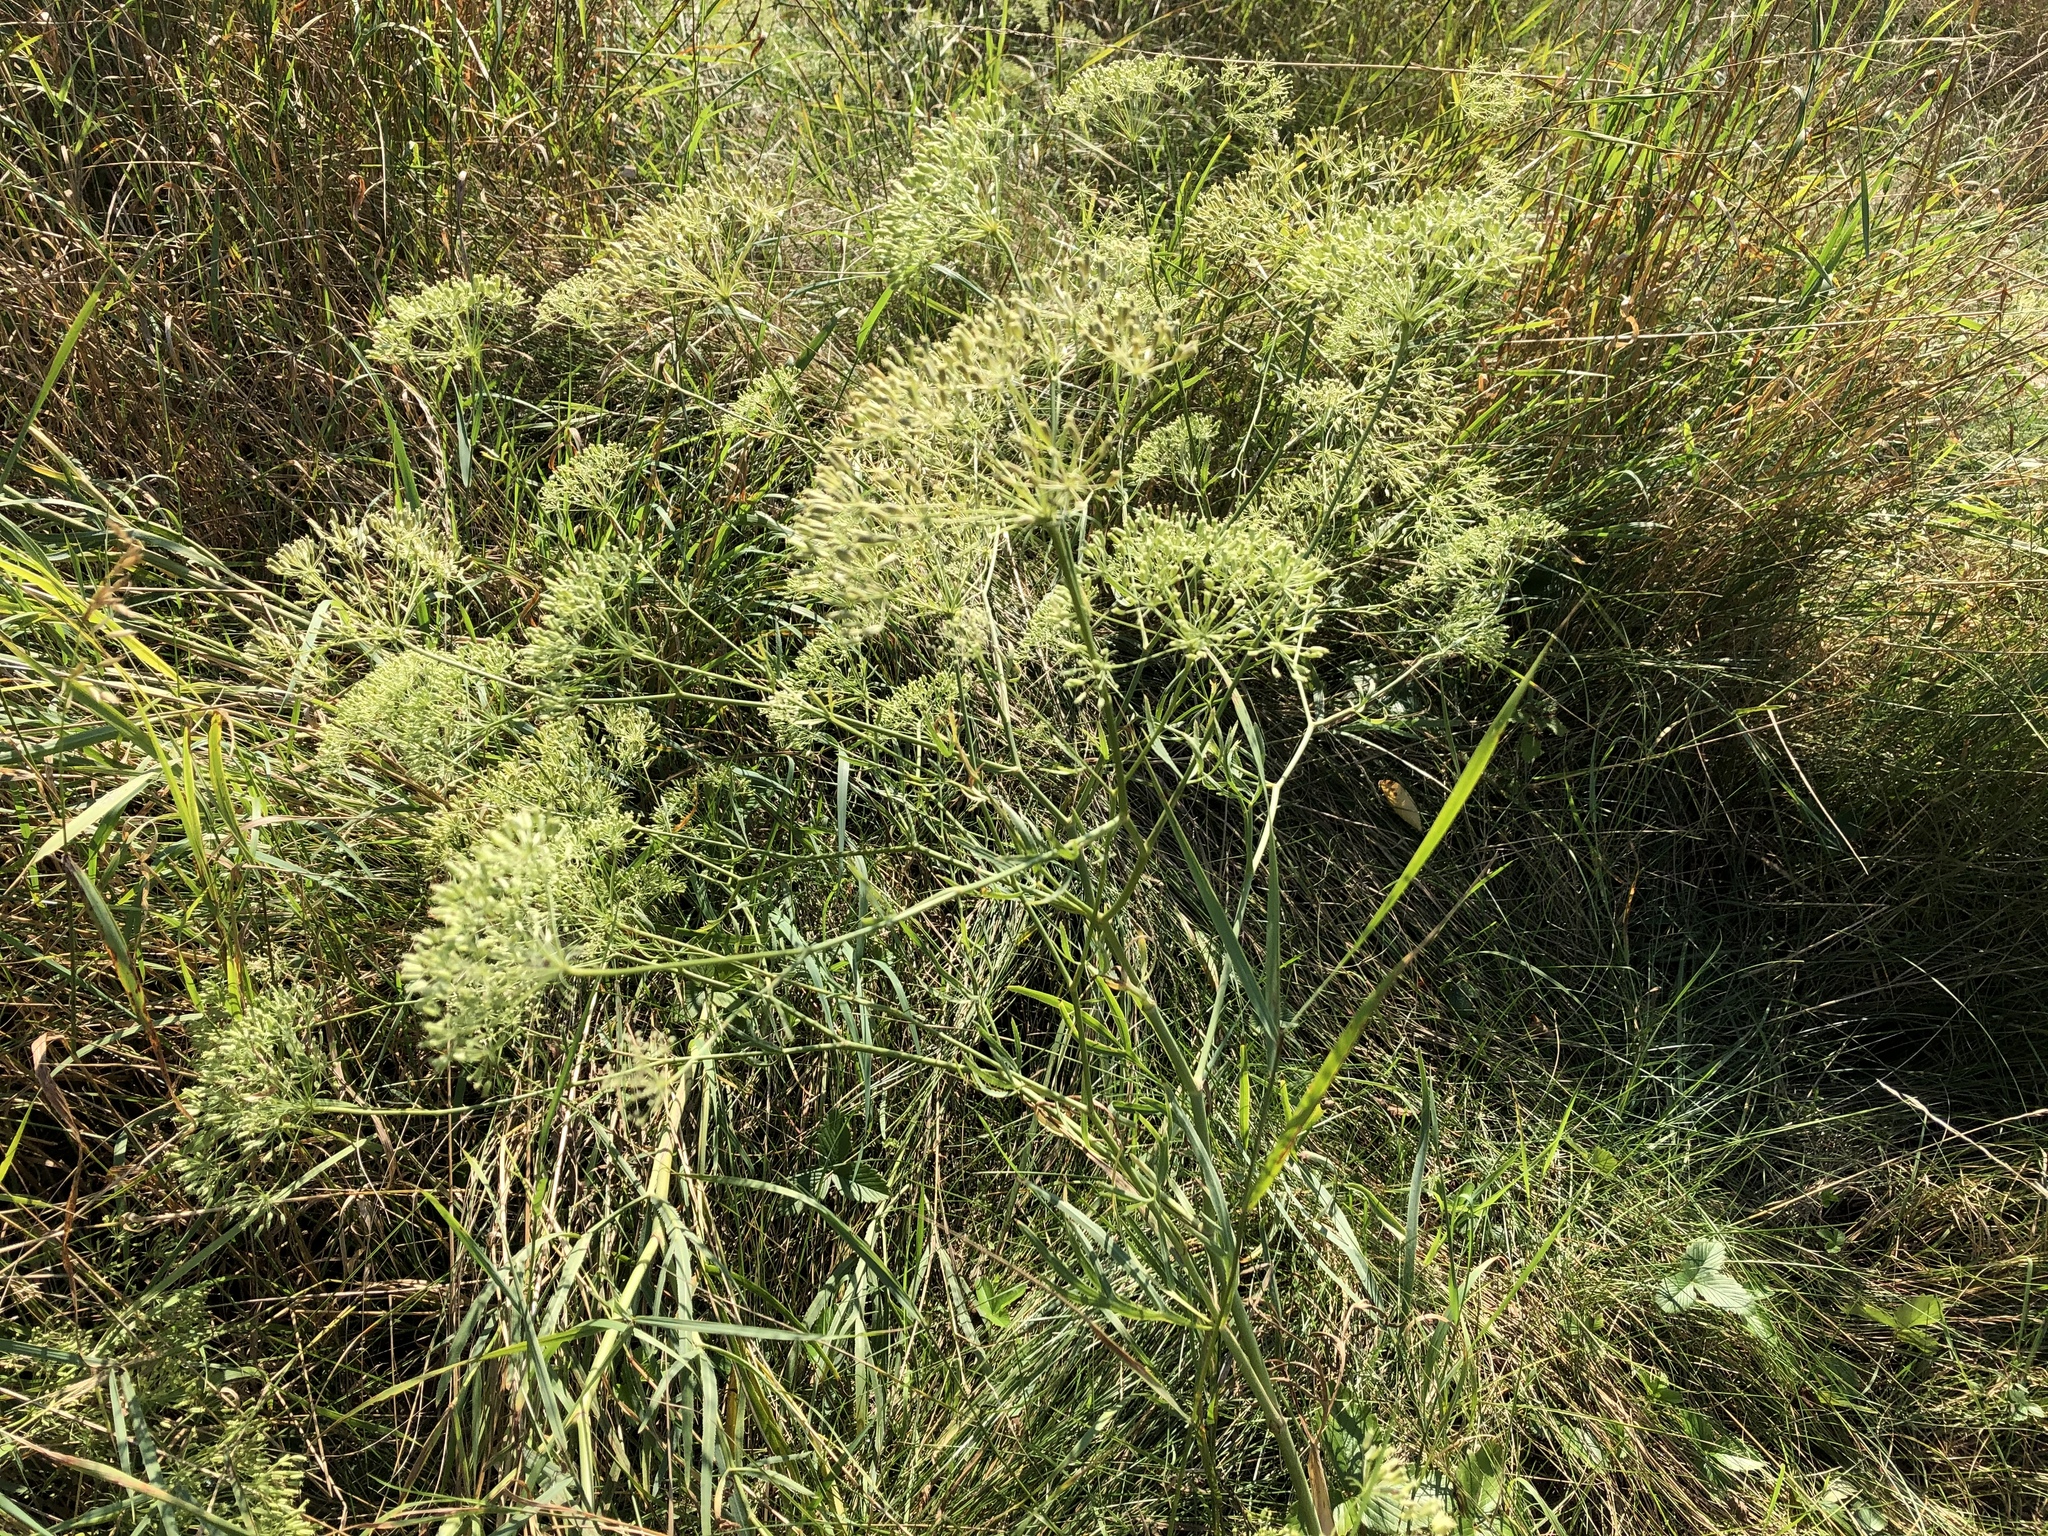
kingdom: Plantae
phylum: Tracheophyta
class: Magnoliopsida
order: Apiales
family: Apiaceae
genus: Falcaria
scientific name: Falcaria vulgaris
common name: Longleaf
